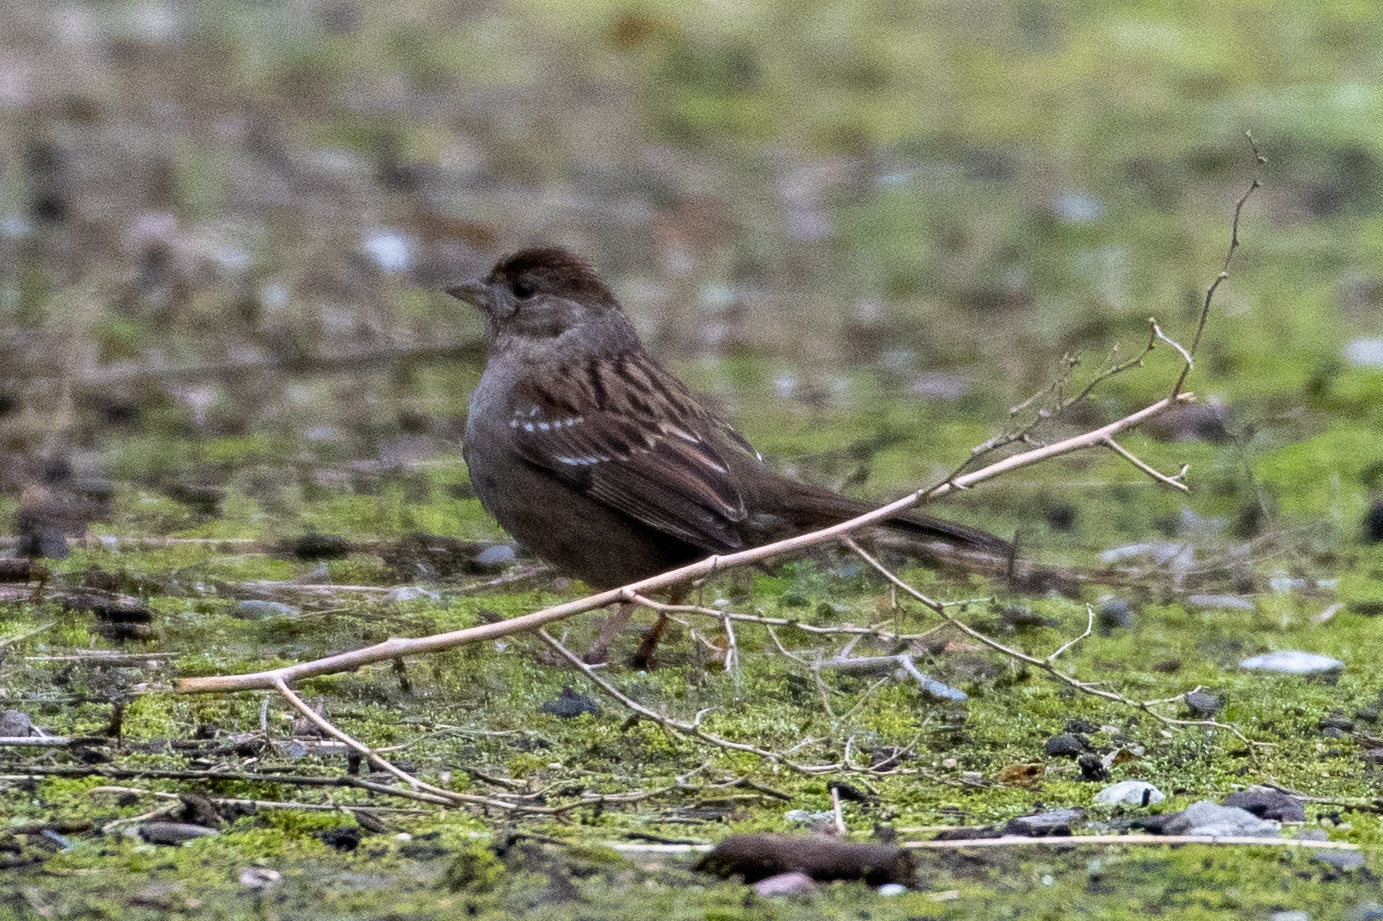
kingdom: Animalia
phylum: Chordata
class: Aves
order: Passeriformes
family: Passerellidae
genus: Zonotrichia
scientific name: Zonotrichia atricapilla
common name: Golden-crowned sparrow
